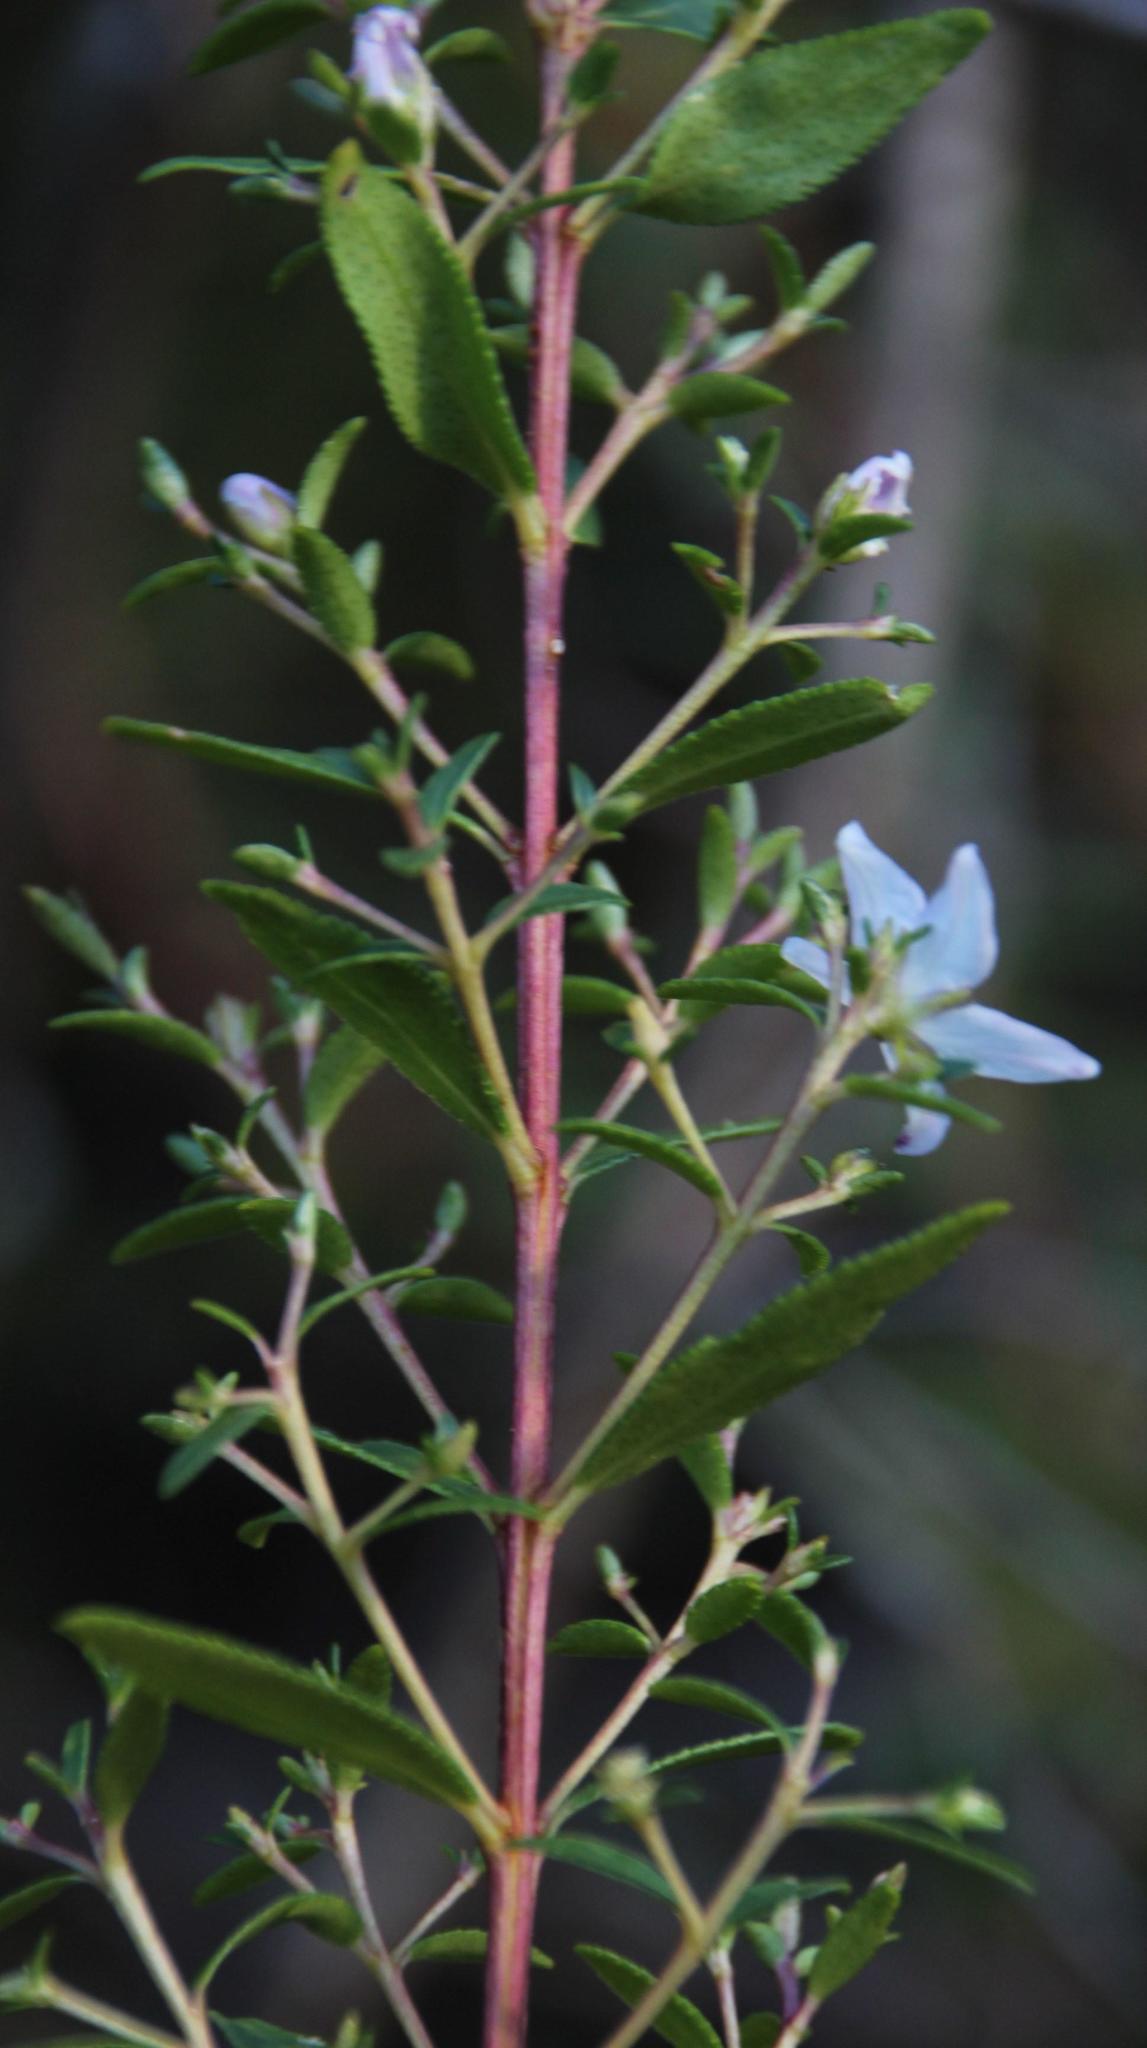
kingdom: Plantae
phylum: Tracheophyta
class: Magnoliopsida
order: Sapindales
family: Rutaceae
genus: Agathosma
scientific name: Agathosma crenulata
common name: Oval buchu
